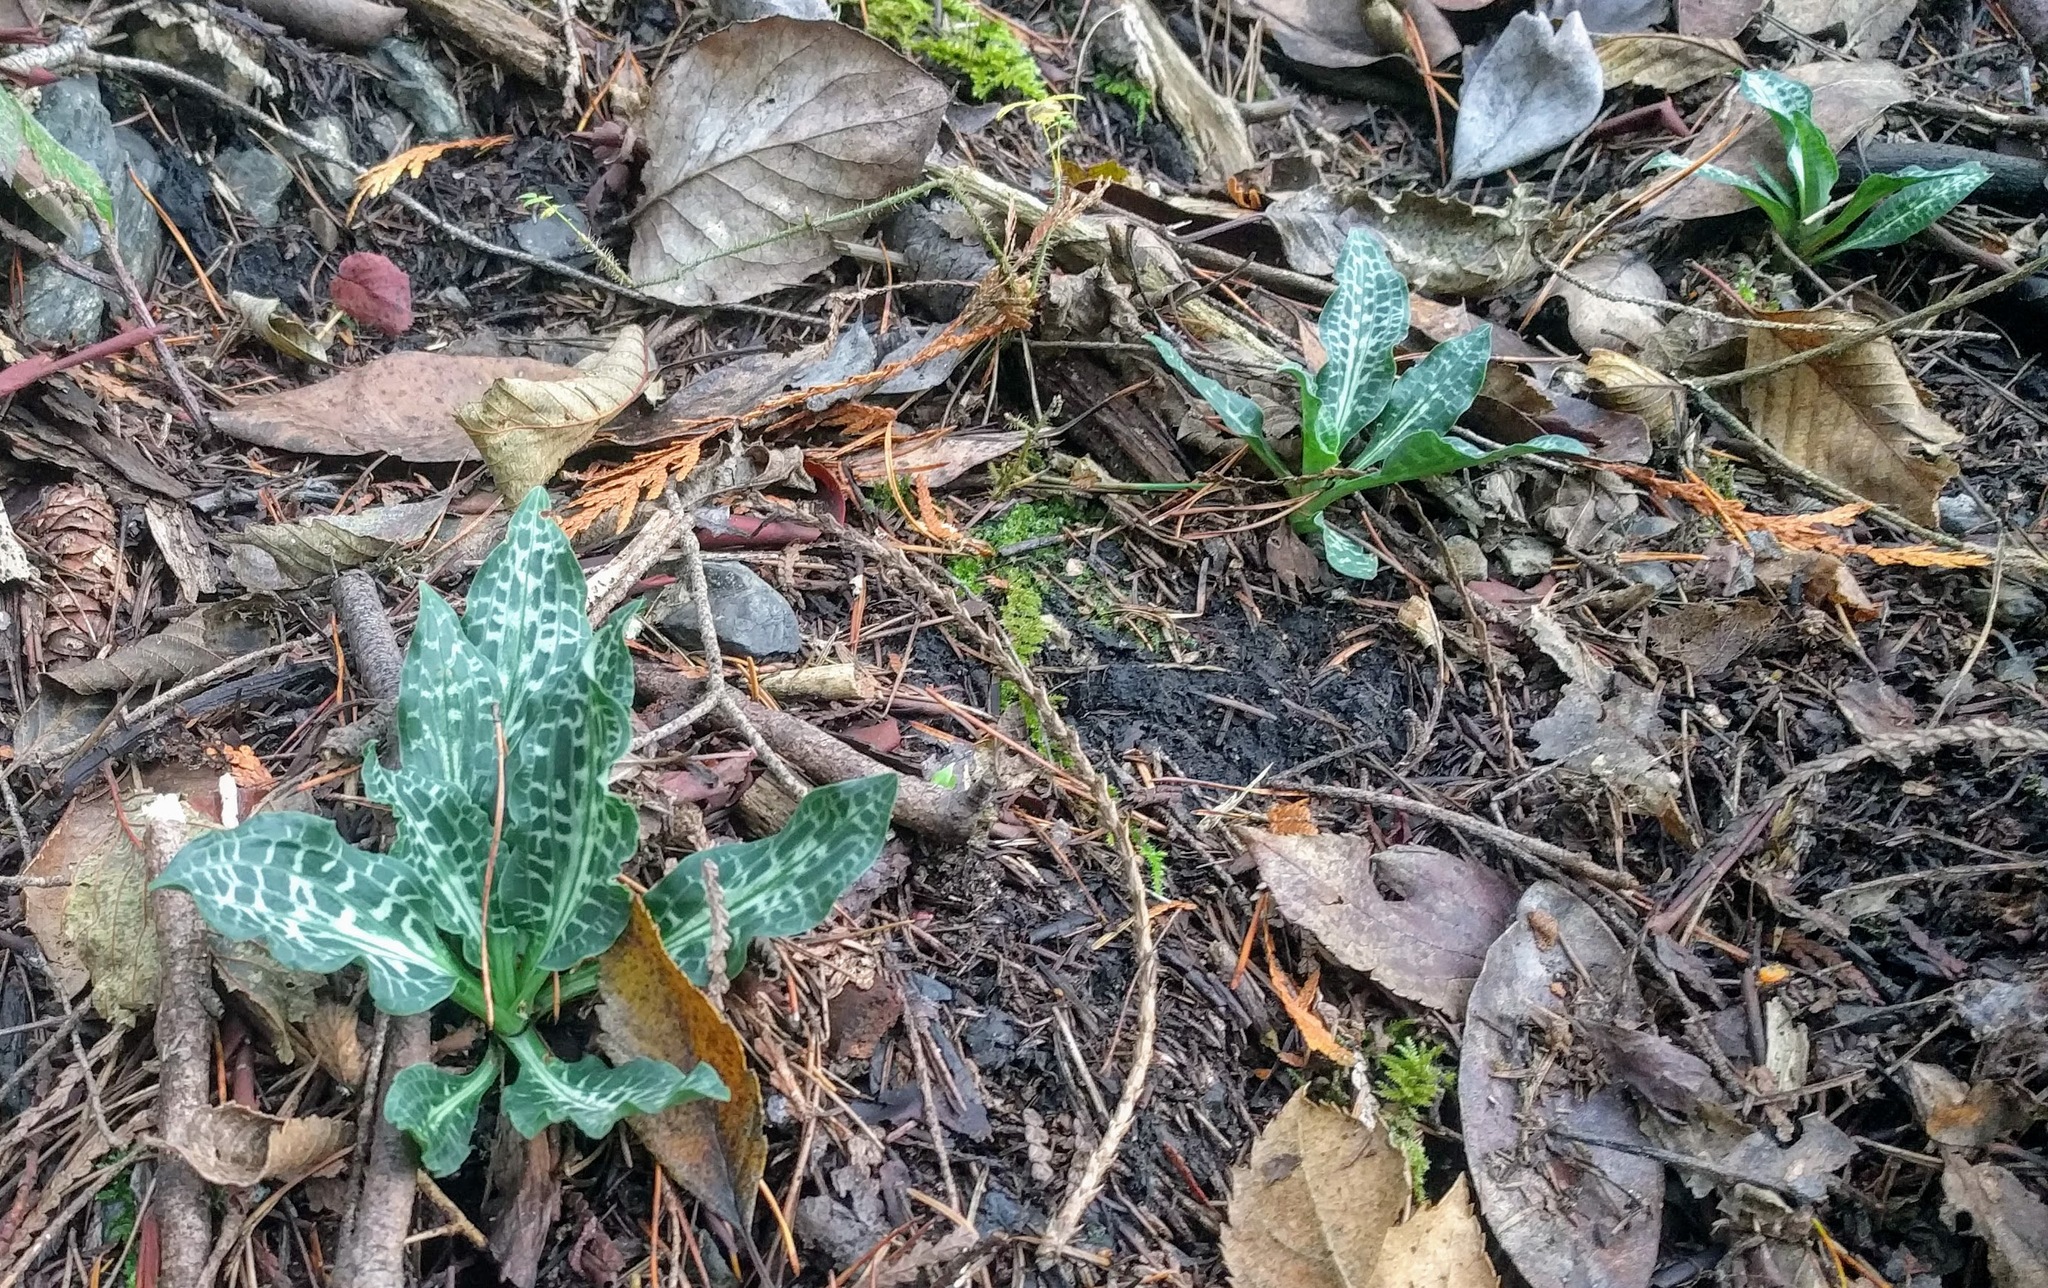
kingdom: Plantae
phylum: Tracheophyta
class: Liliopsida
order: Asparagales
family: Orchidaceae
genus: Goodyera
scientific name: Goodyera oblongifolia
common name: Giant rattlesnake-plantain
